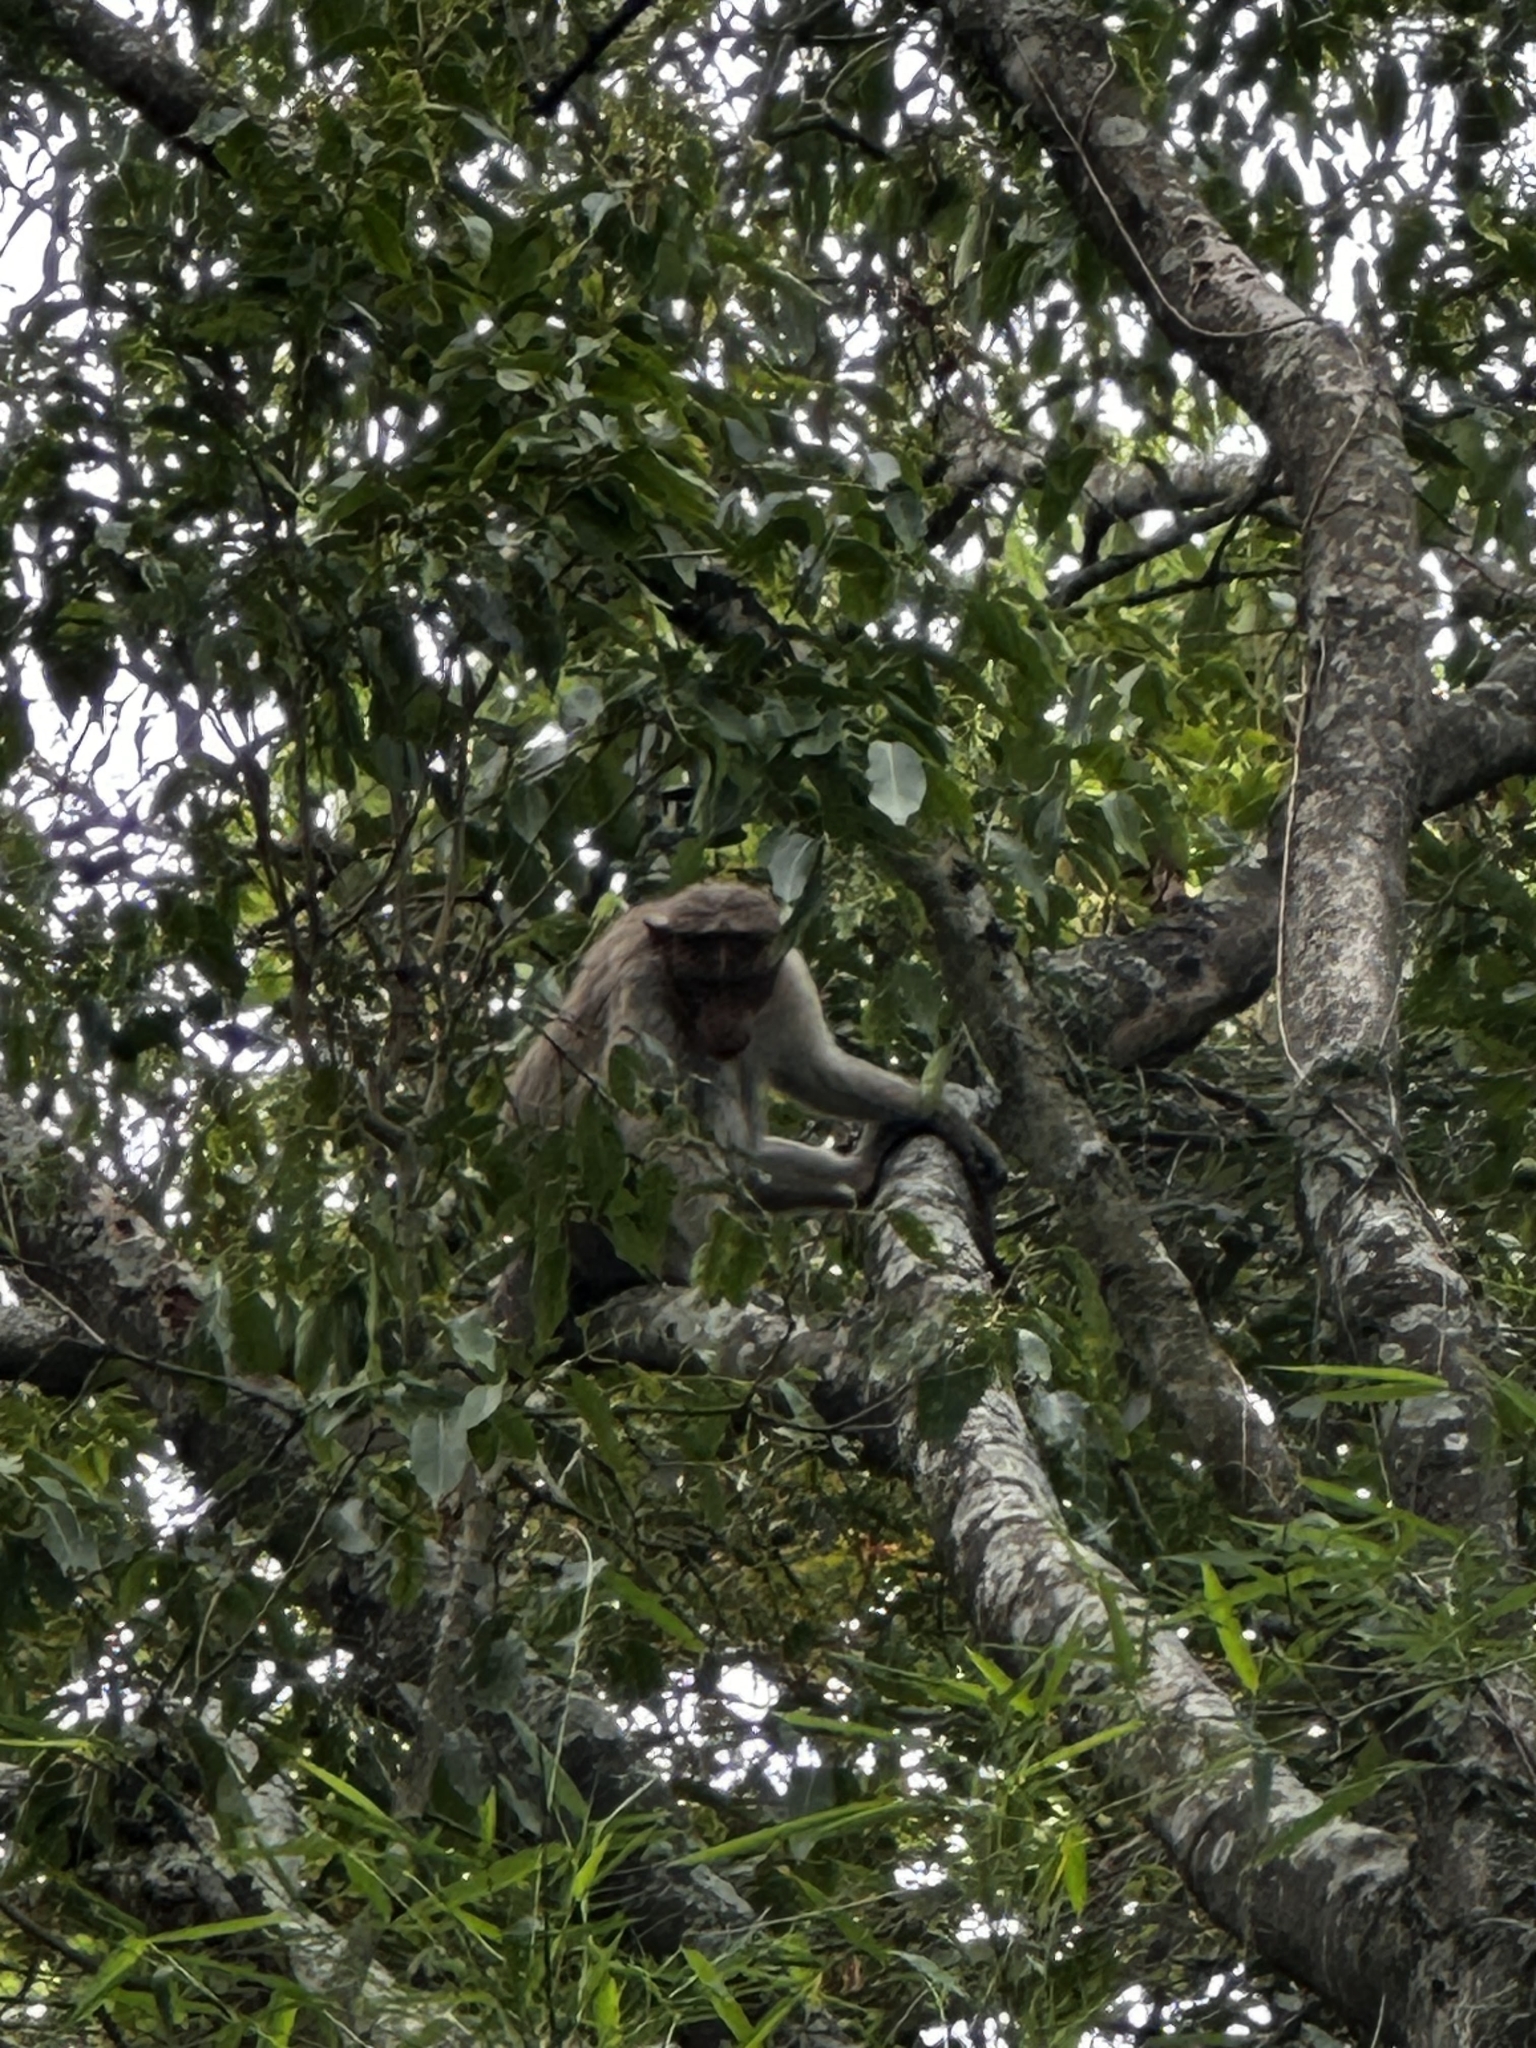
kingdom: Animalia
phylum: Chordata
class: Mammalia
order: Primates
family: Cercopithecidae
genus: Macaca
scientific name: Macaca radiata
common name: Bonnet macaque
